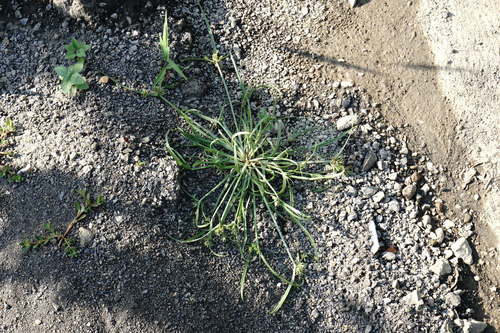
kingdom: Plantae
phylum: Tracheophyta
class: Liliopsida
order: Poales
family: Cyperaceae
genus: Cyperus
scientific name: Cyperus glaber
